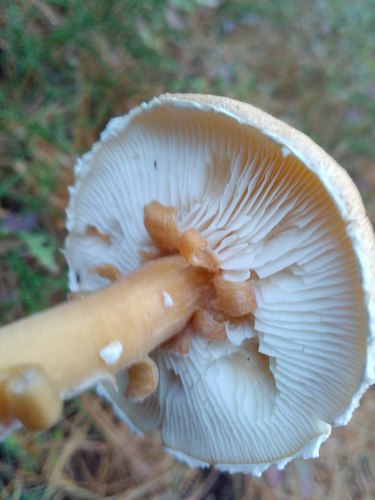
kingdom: Fungi
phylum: Basidiomycota
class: Agaricomycetes
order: Agaricales
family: Agaricaceae
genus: Cystodermella
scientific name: Cystodermella
